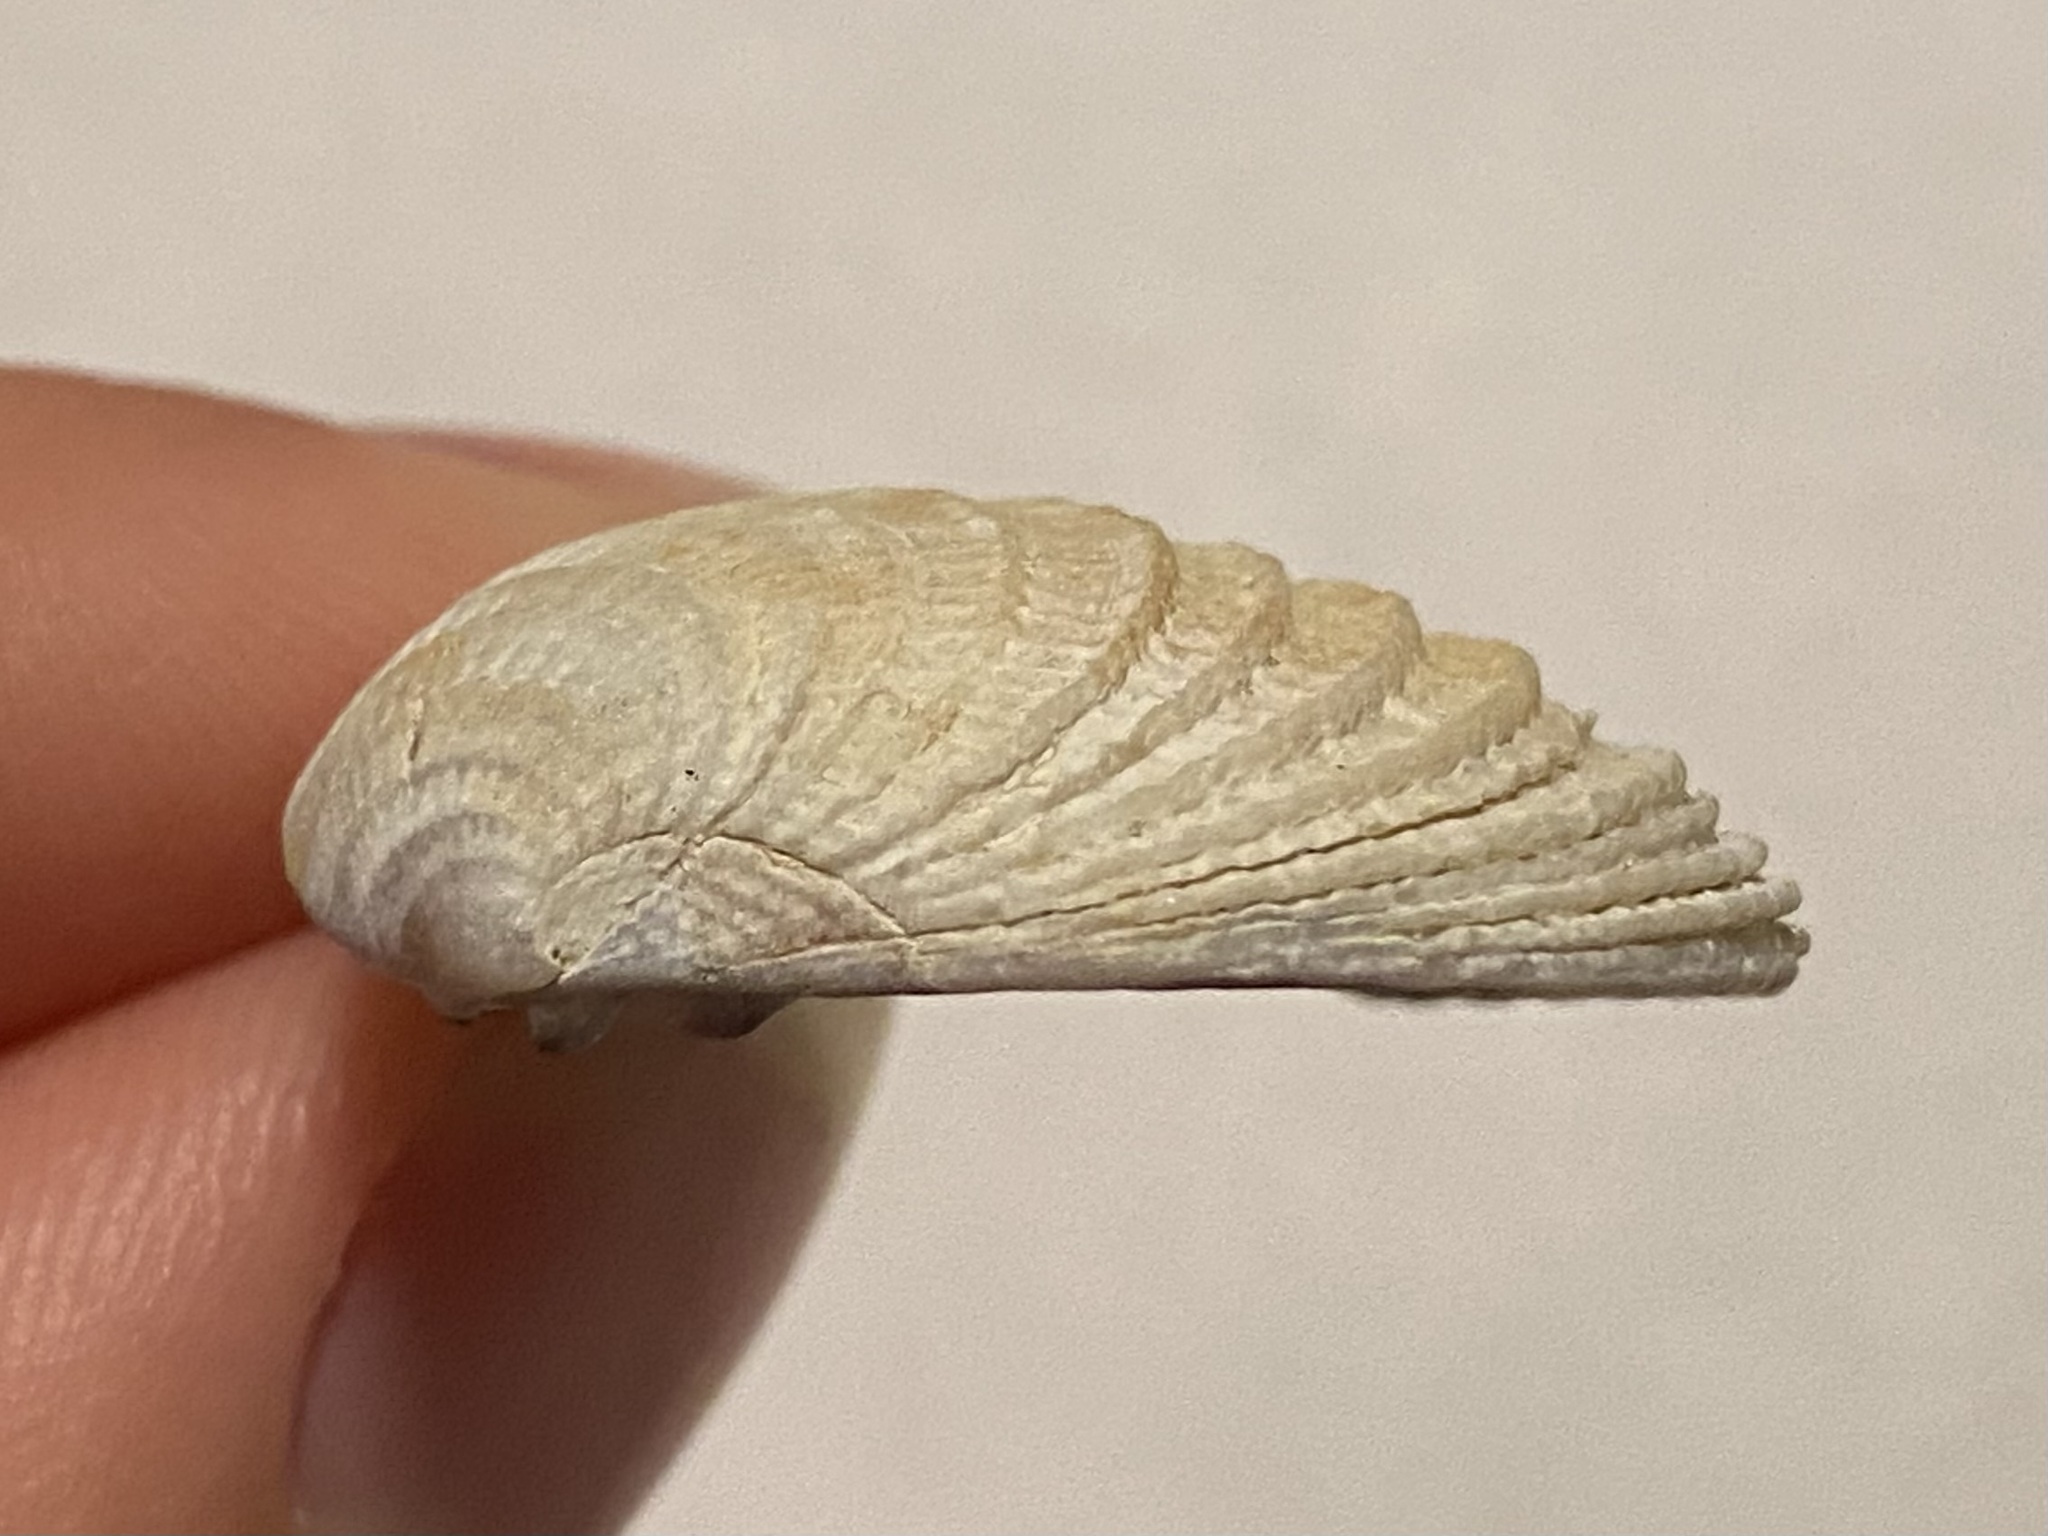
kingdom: Animalia
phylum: Mollusca
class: Bivalvia
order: Venerida
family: Veneridae
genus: Chione
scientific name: Chione elevata
